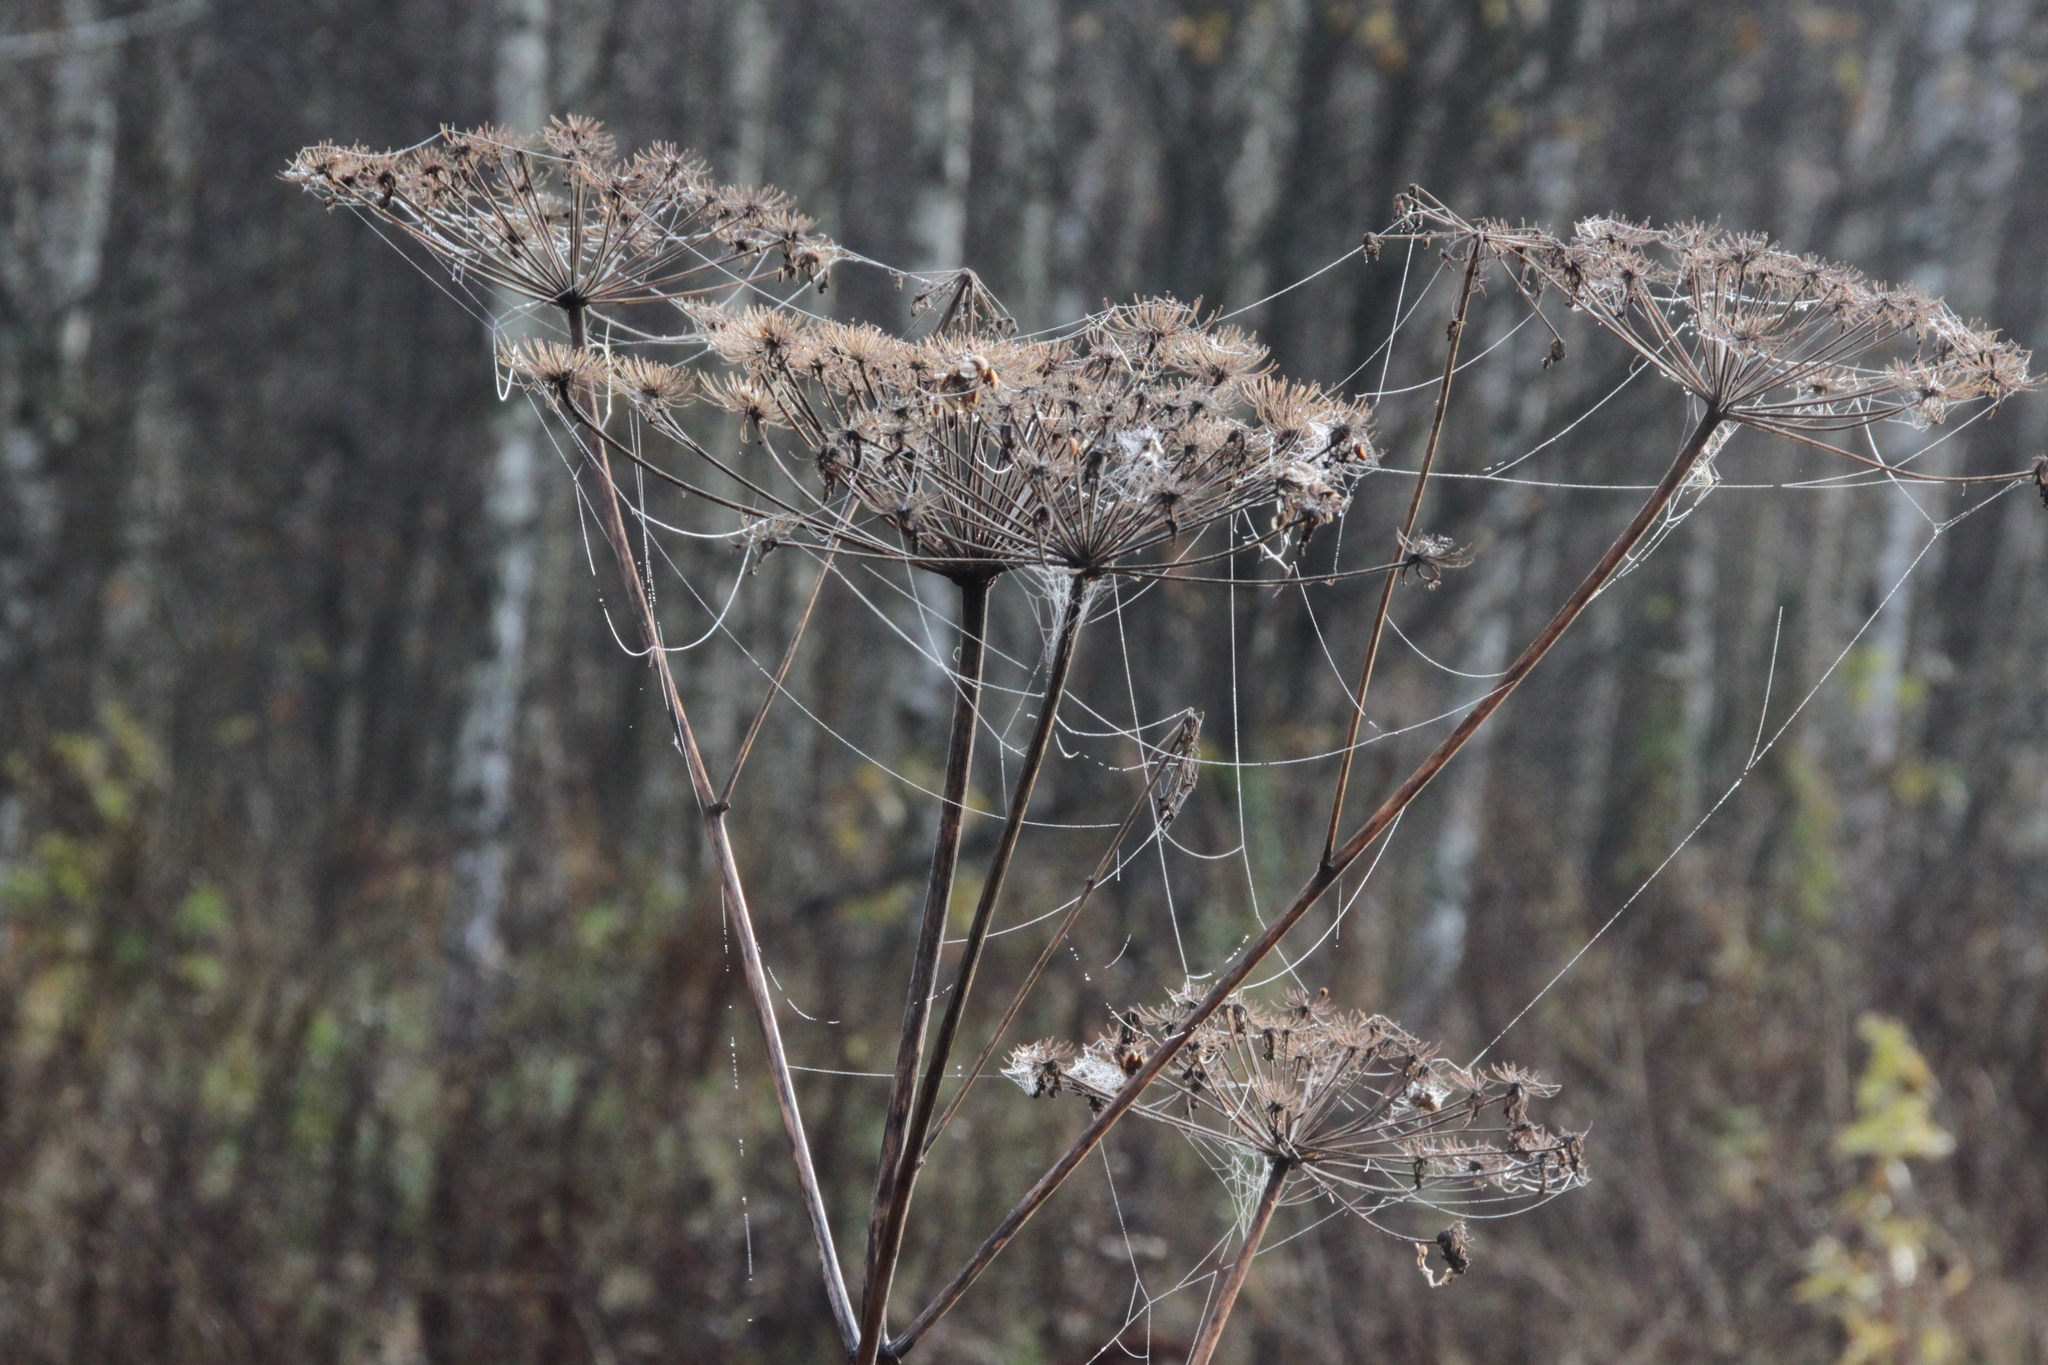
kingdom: Plantae
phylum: Tracheophyta
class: Magnoliopsida
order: Apiales
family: Apiaceae
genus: Angelica
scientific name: Angelica sylvestris
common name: Wild angelica
